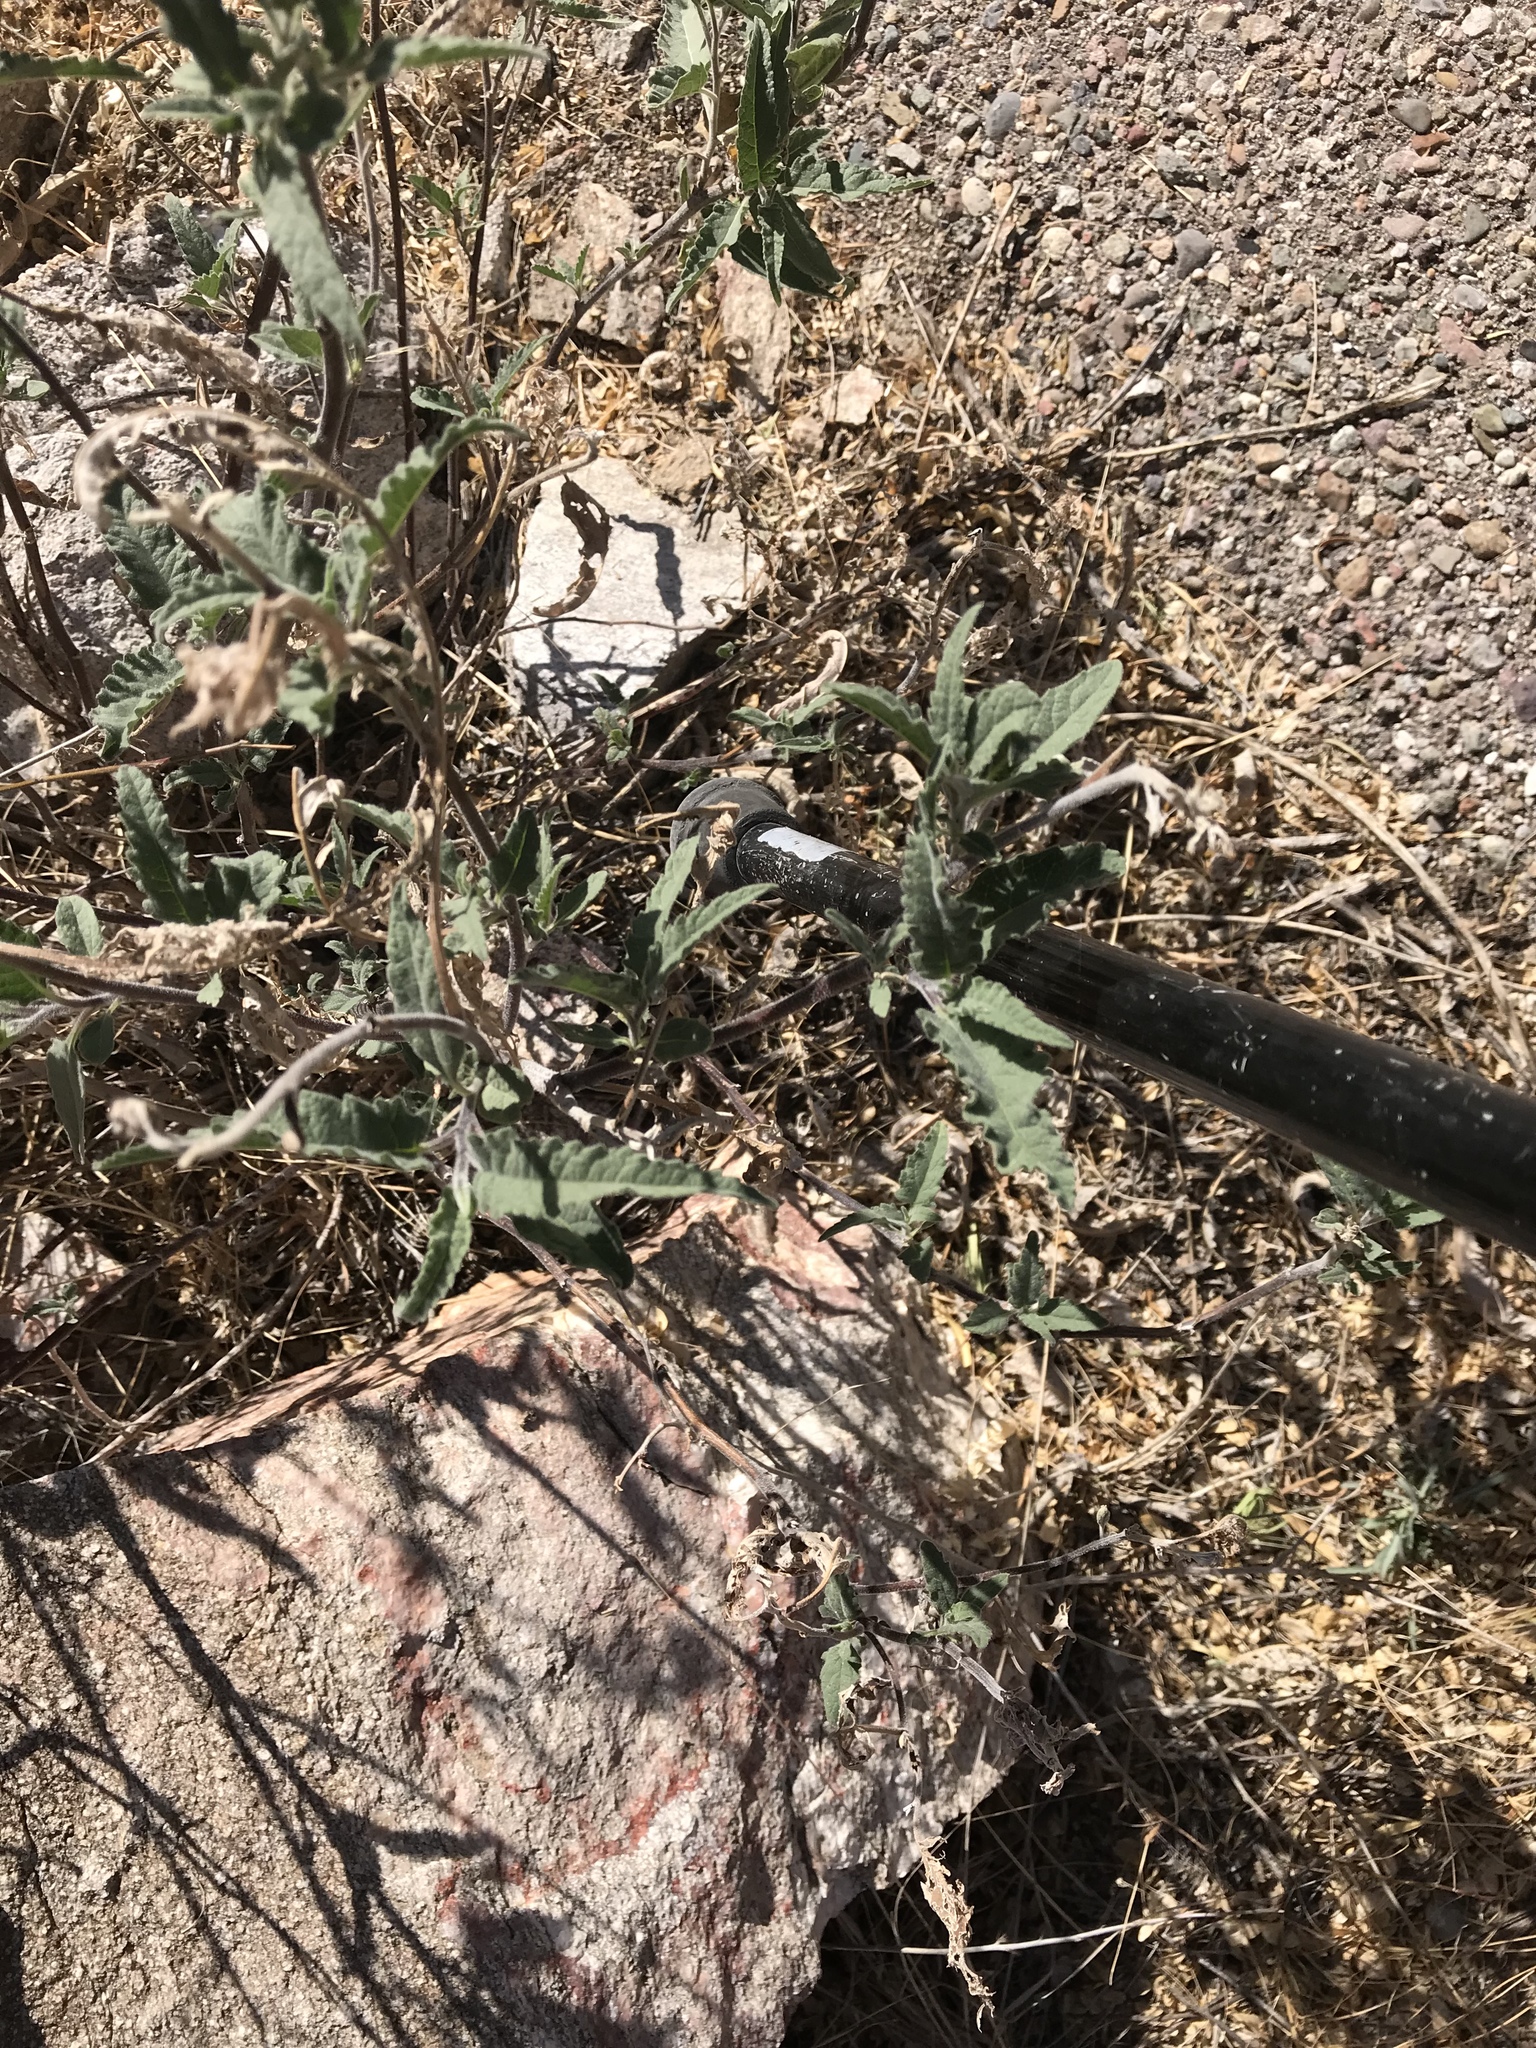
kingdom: Plantae
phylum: Tracheophyta
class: Magnoliopsida
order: Asterales
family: Asteraceae
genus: Ambrosia
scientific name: Ambrosia ambrosioides
